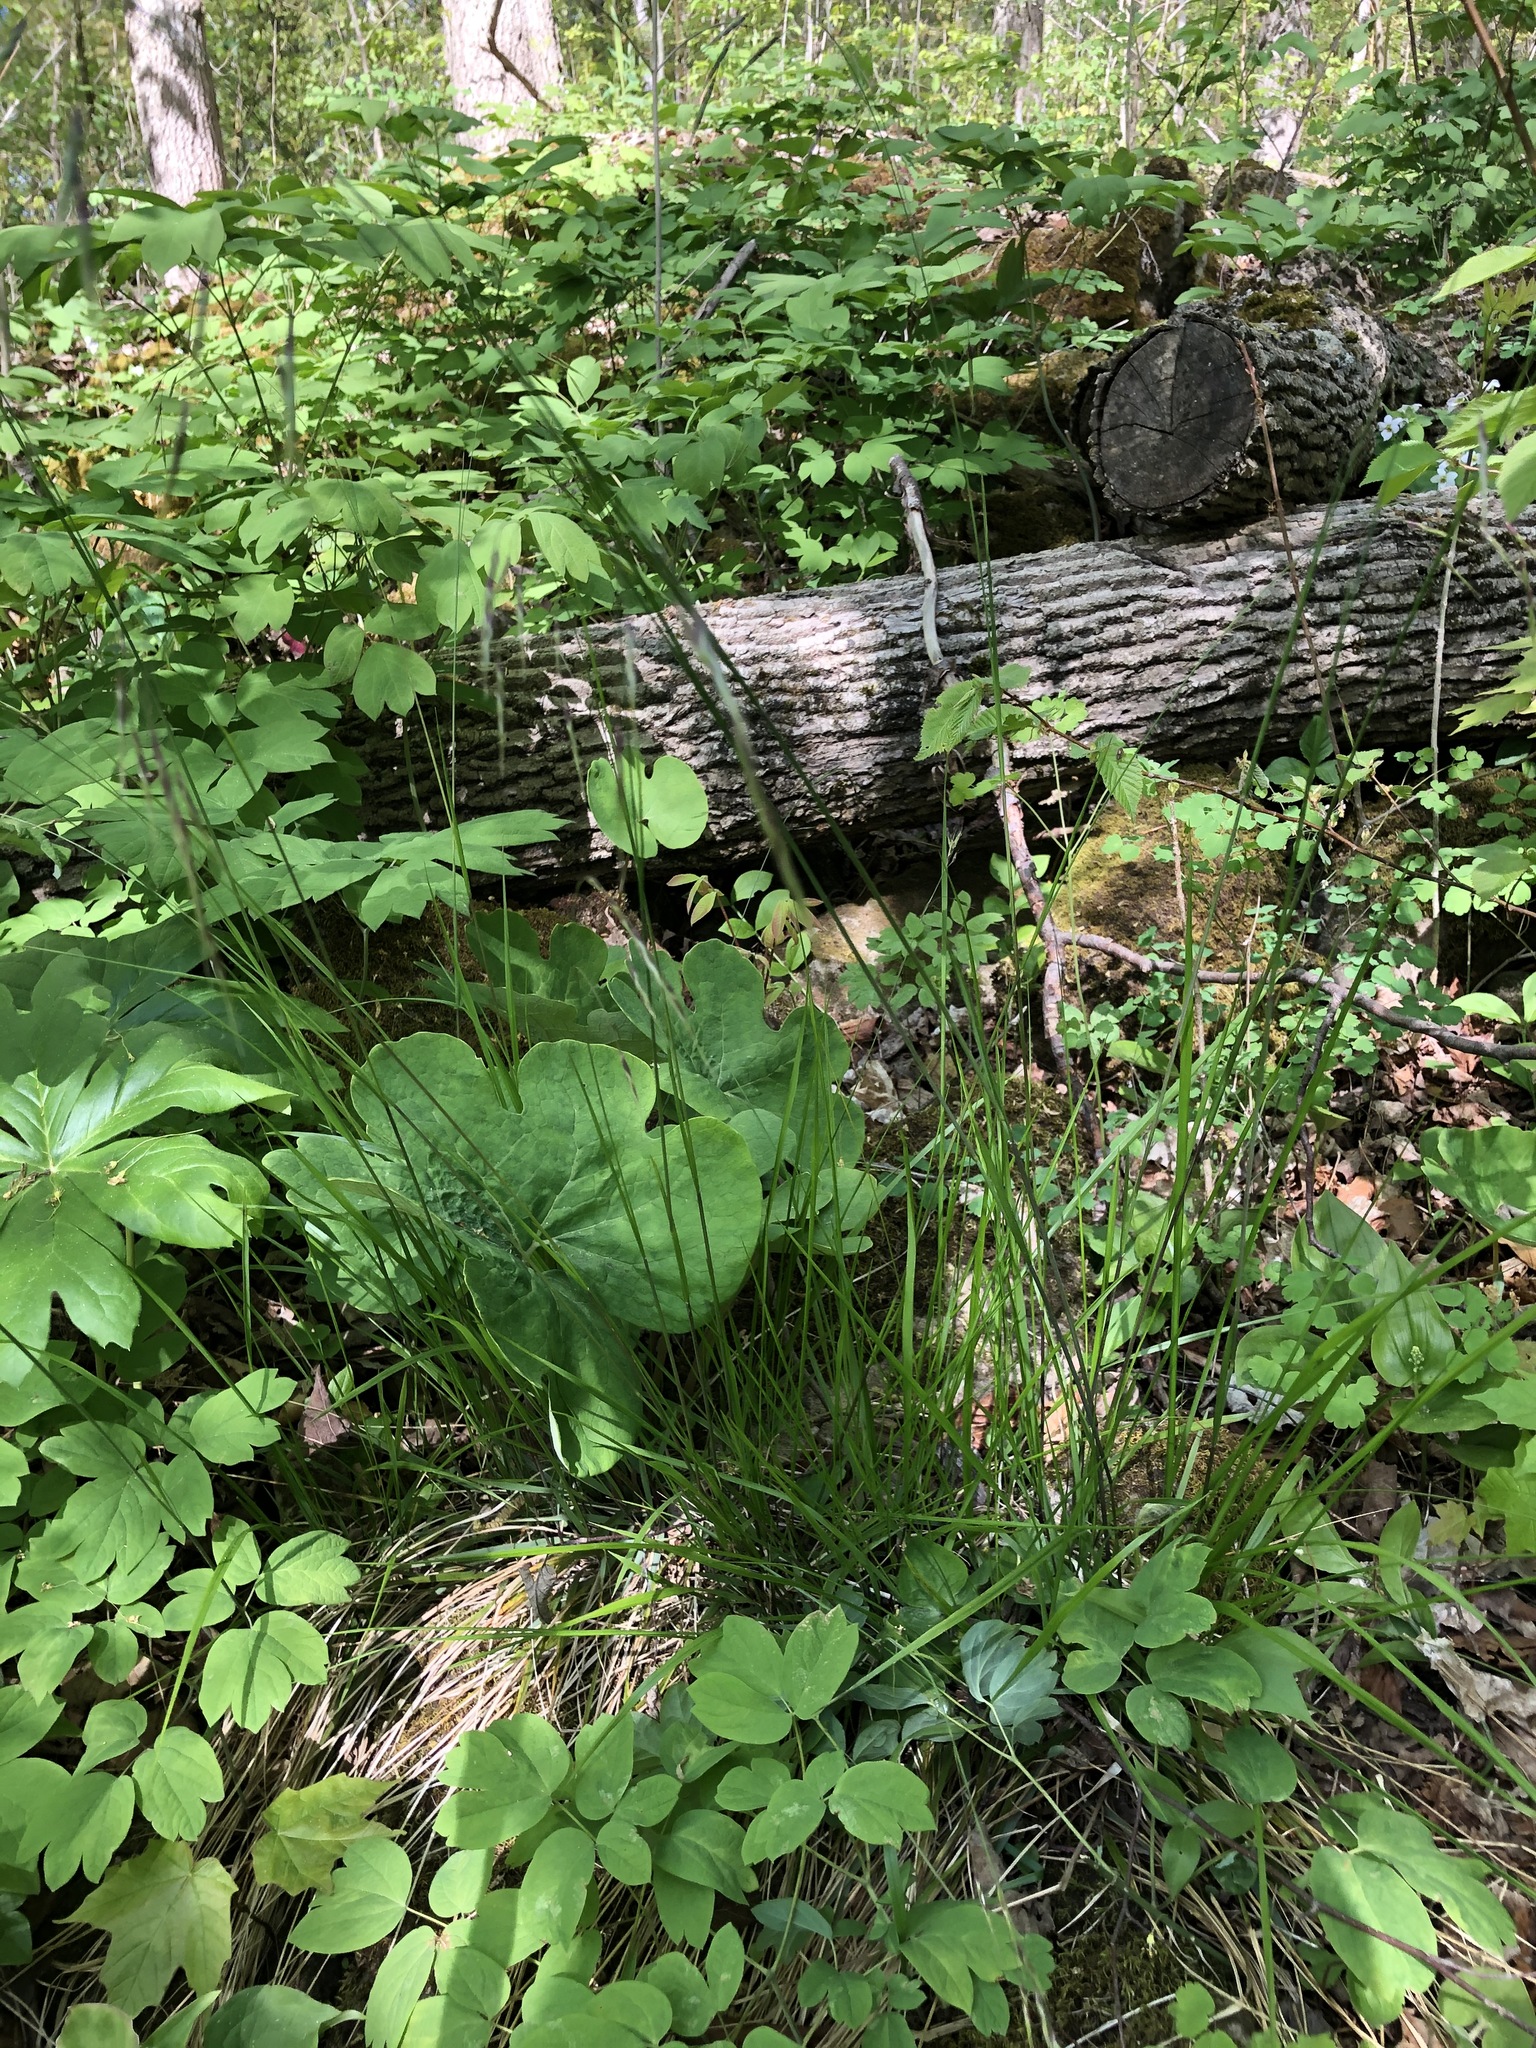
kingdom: Plantae
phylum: Tracheophyta
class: Liliopsida
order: Poales
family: Poaceae
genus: Schizachne
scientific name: Schizachne purpurascens
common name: False melic
